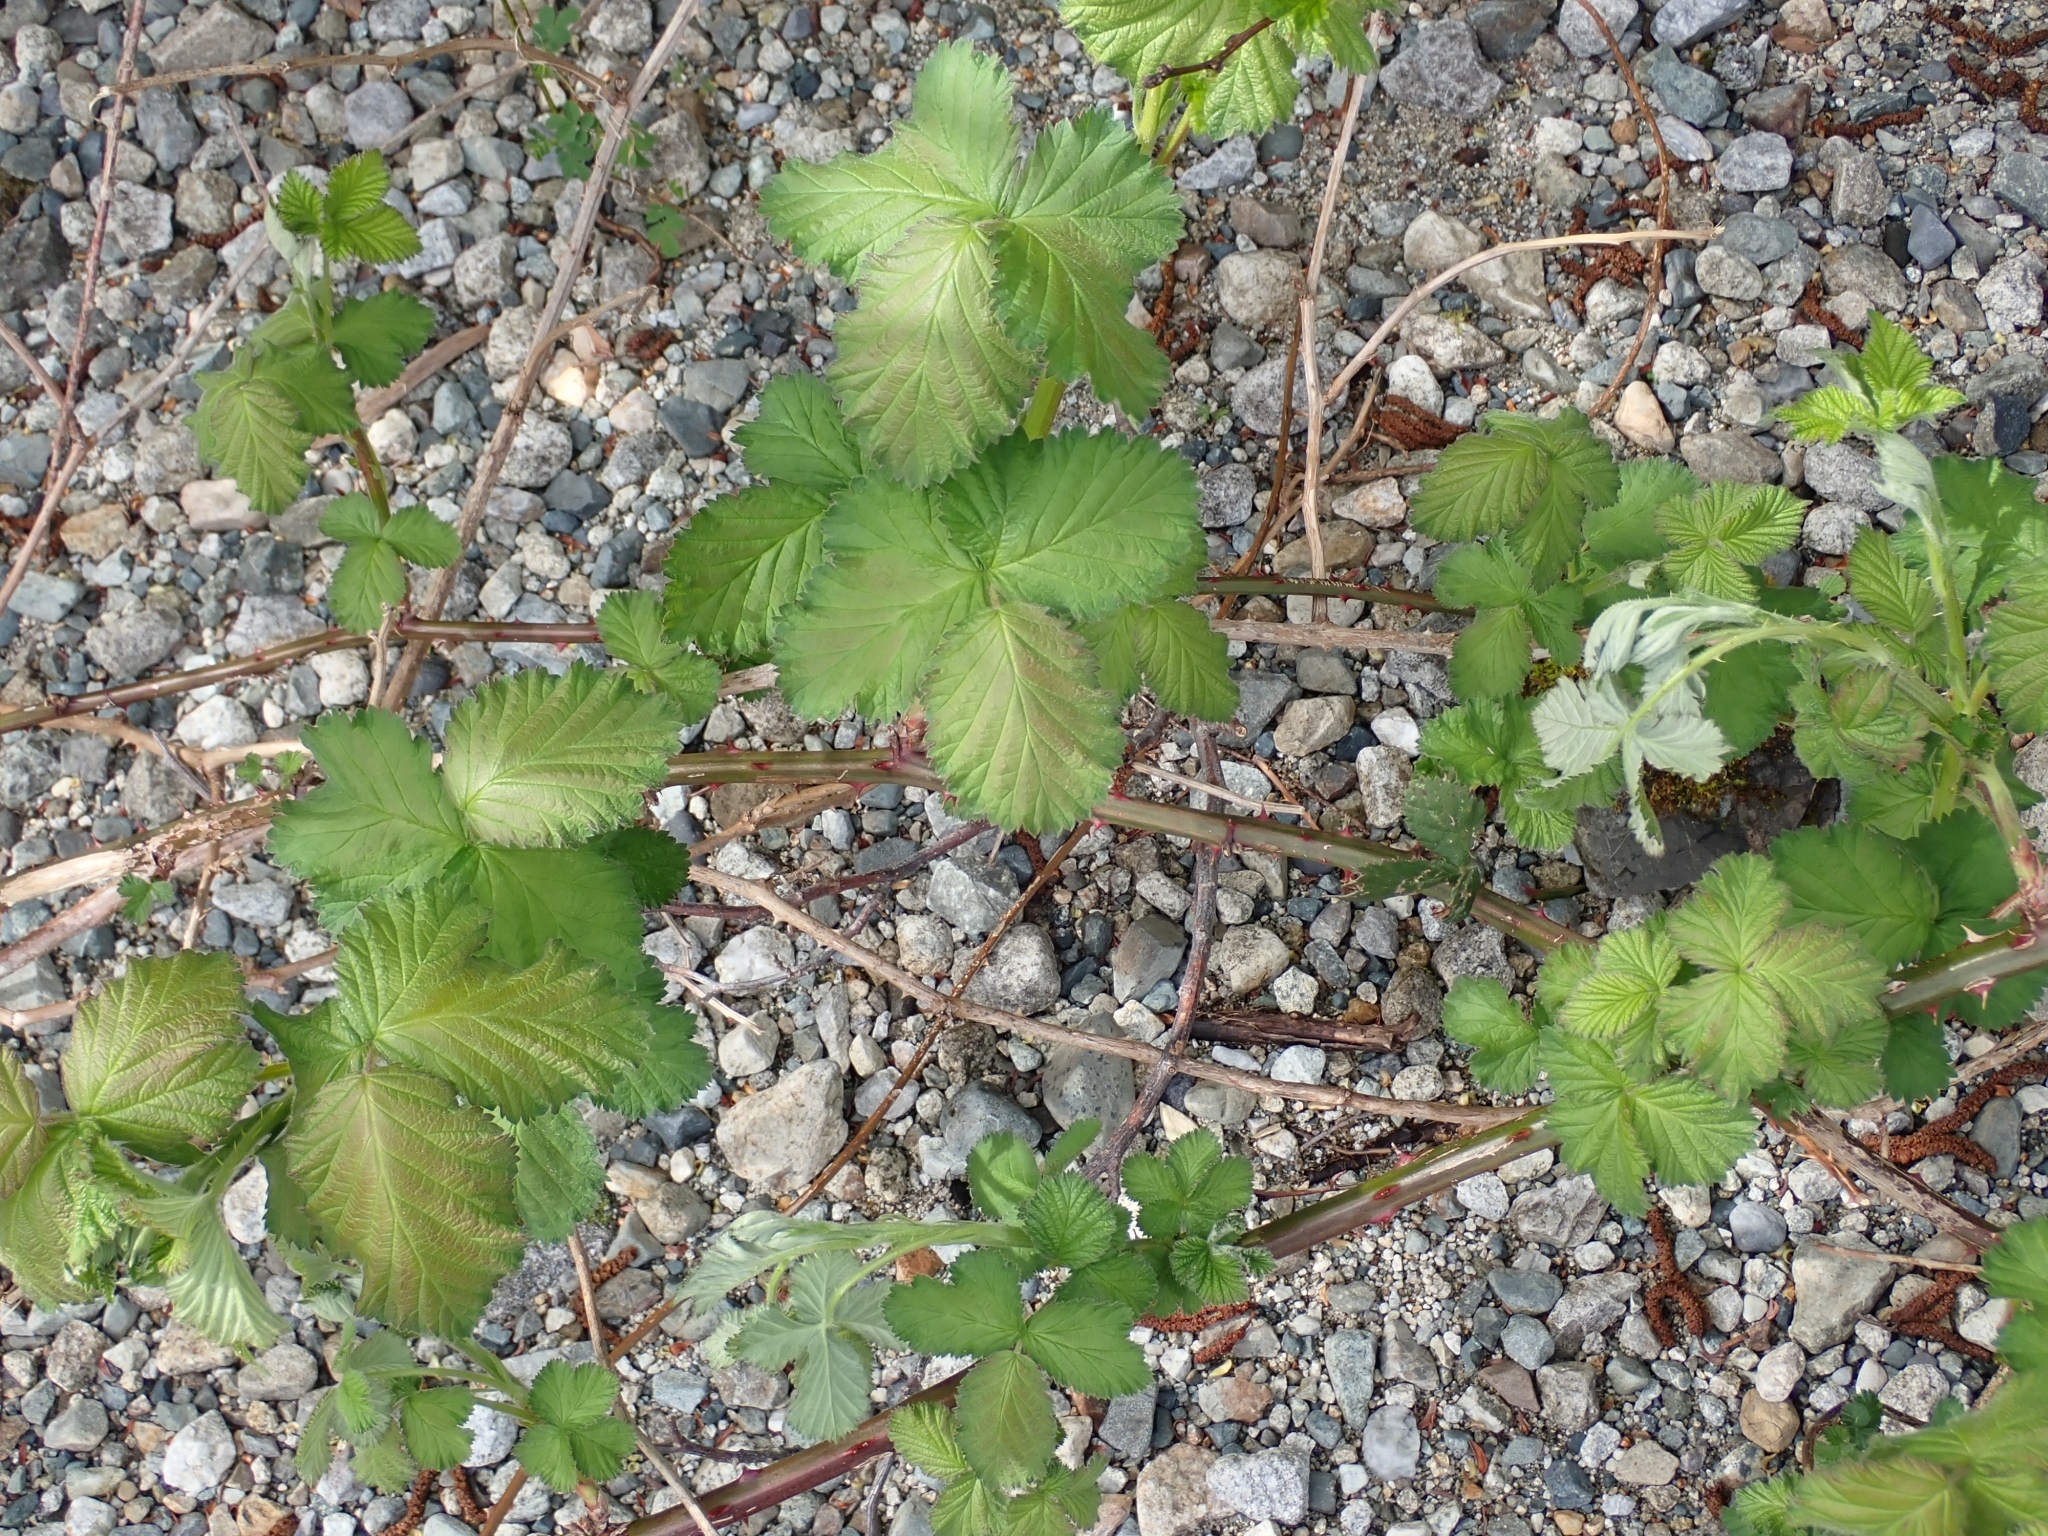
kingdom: Plantae
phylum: Tracheophyta
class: Magnoliopsida
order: Rosales
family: Rosaceae
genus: Rubus
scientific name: Rubus bifrons
